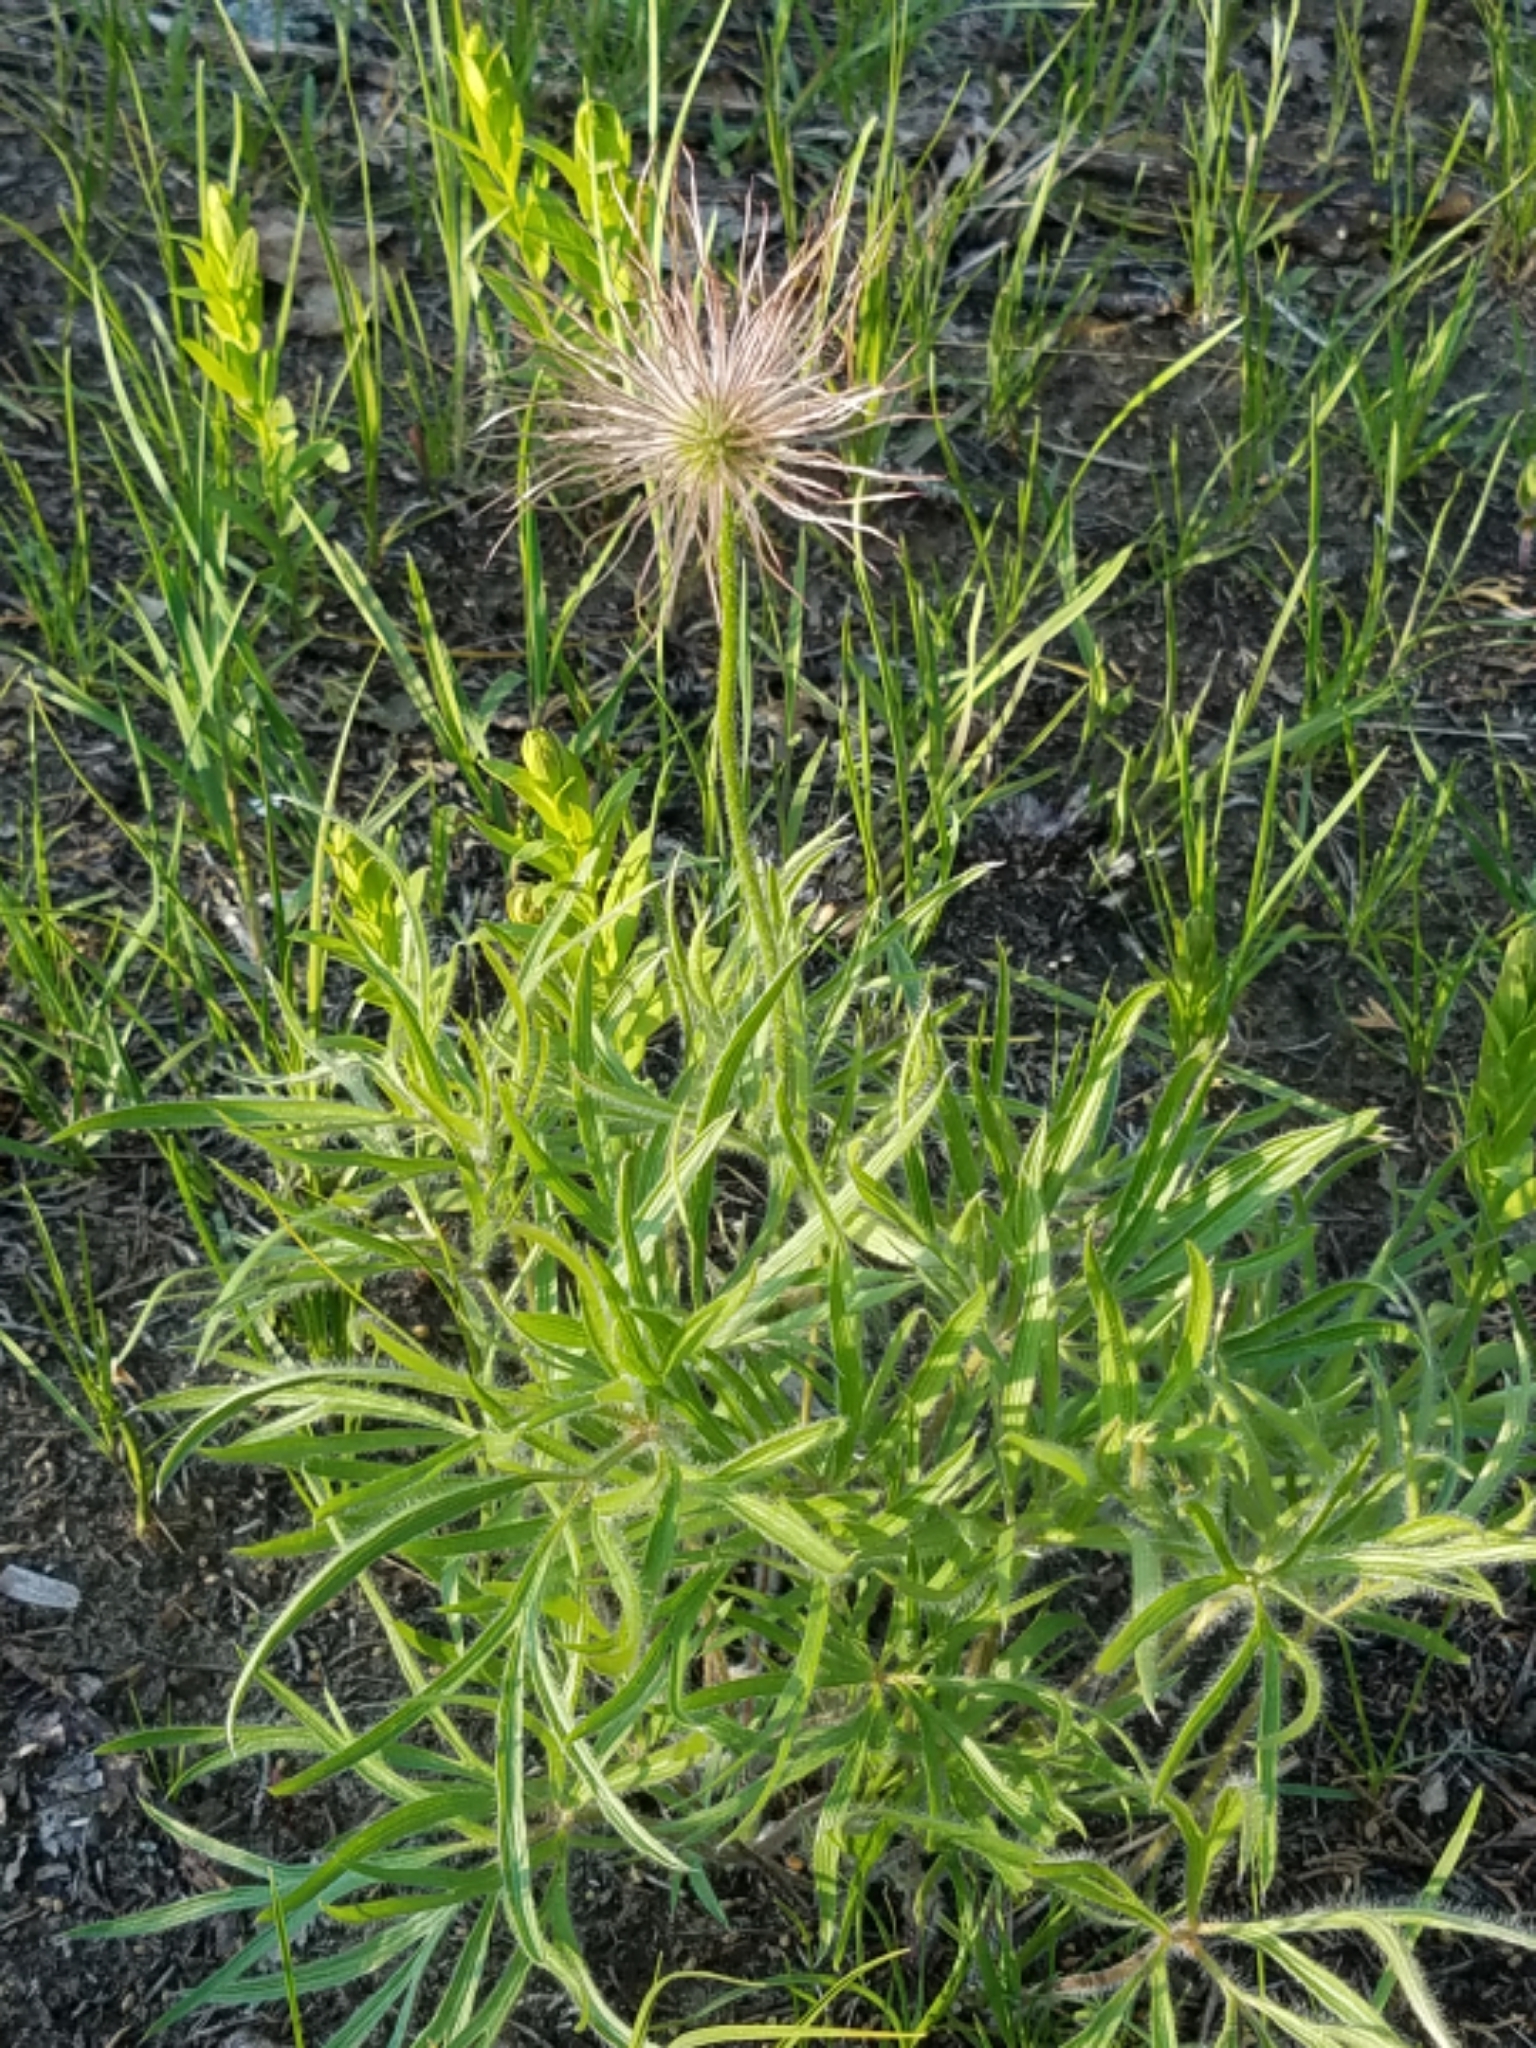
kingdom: Plantae
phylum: Tracheophyta
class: Magnoliopsida
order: Ranunculales
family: Ranunculaceae
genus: Pulsatilla
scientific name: Pulsatilla nuttalliana
